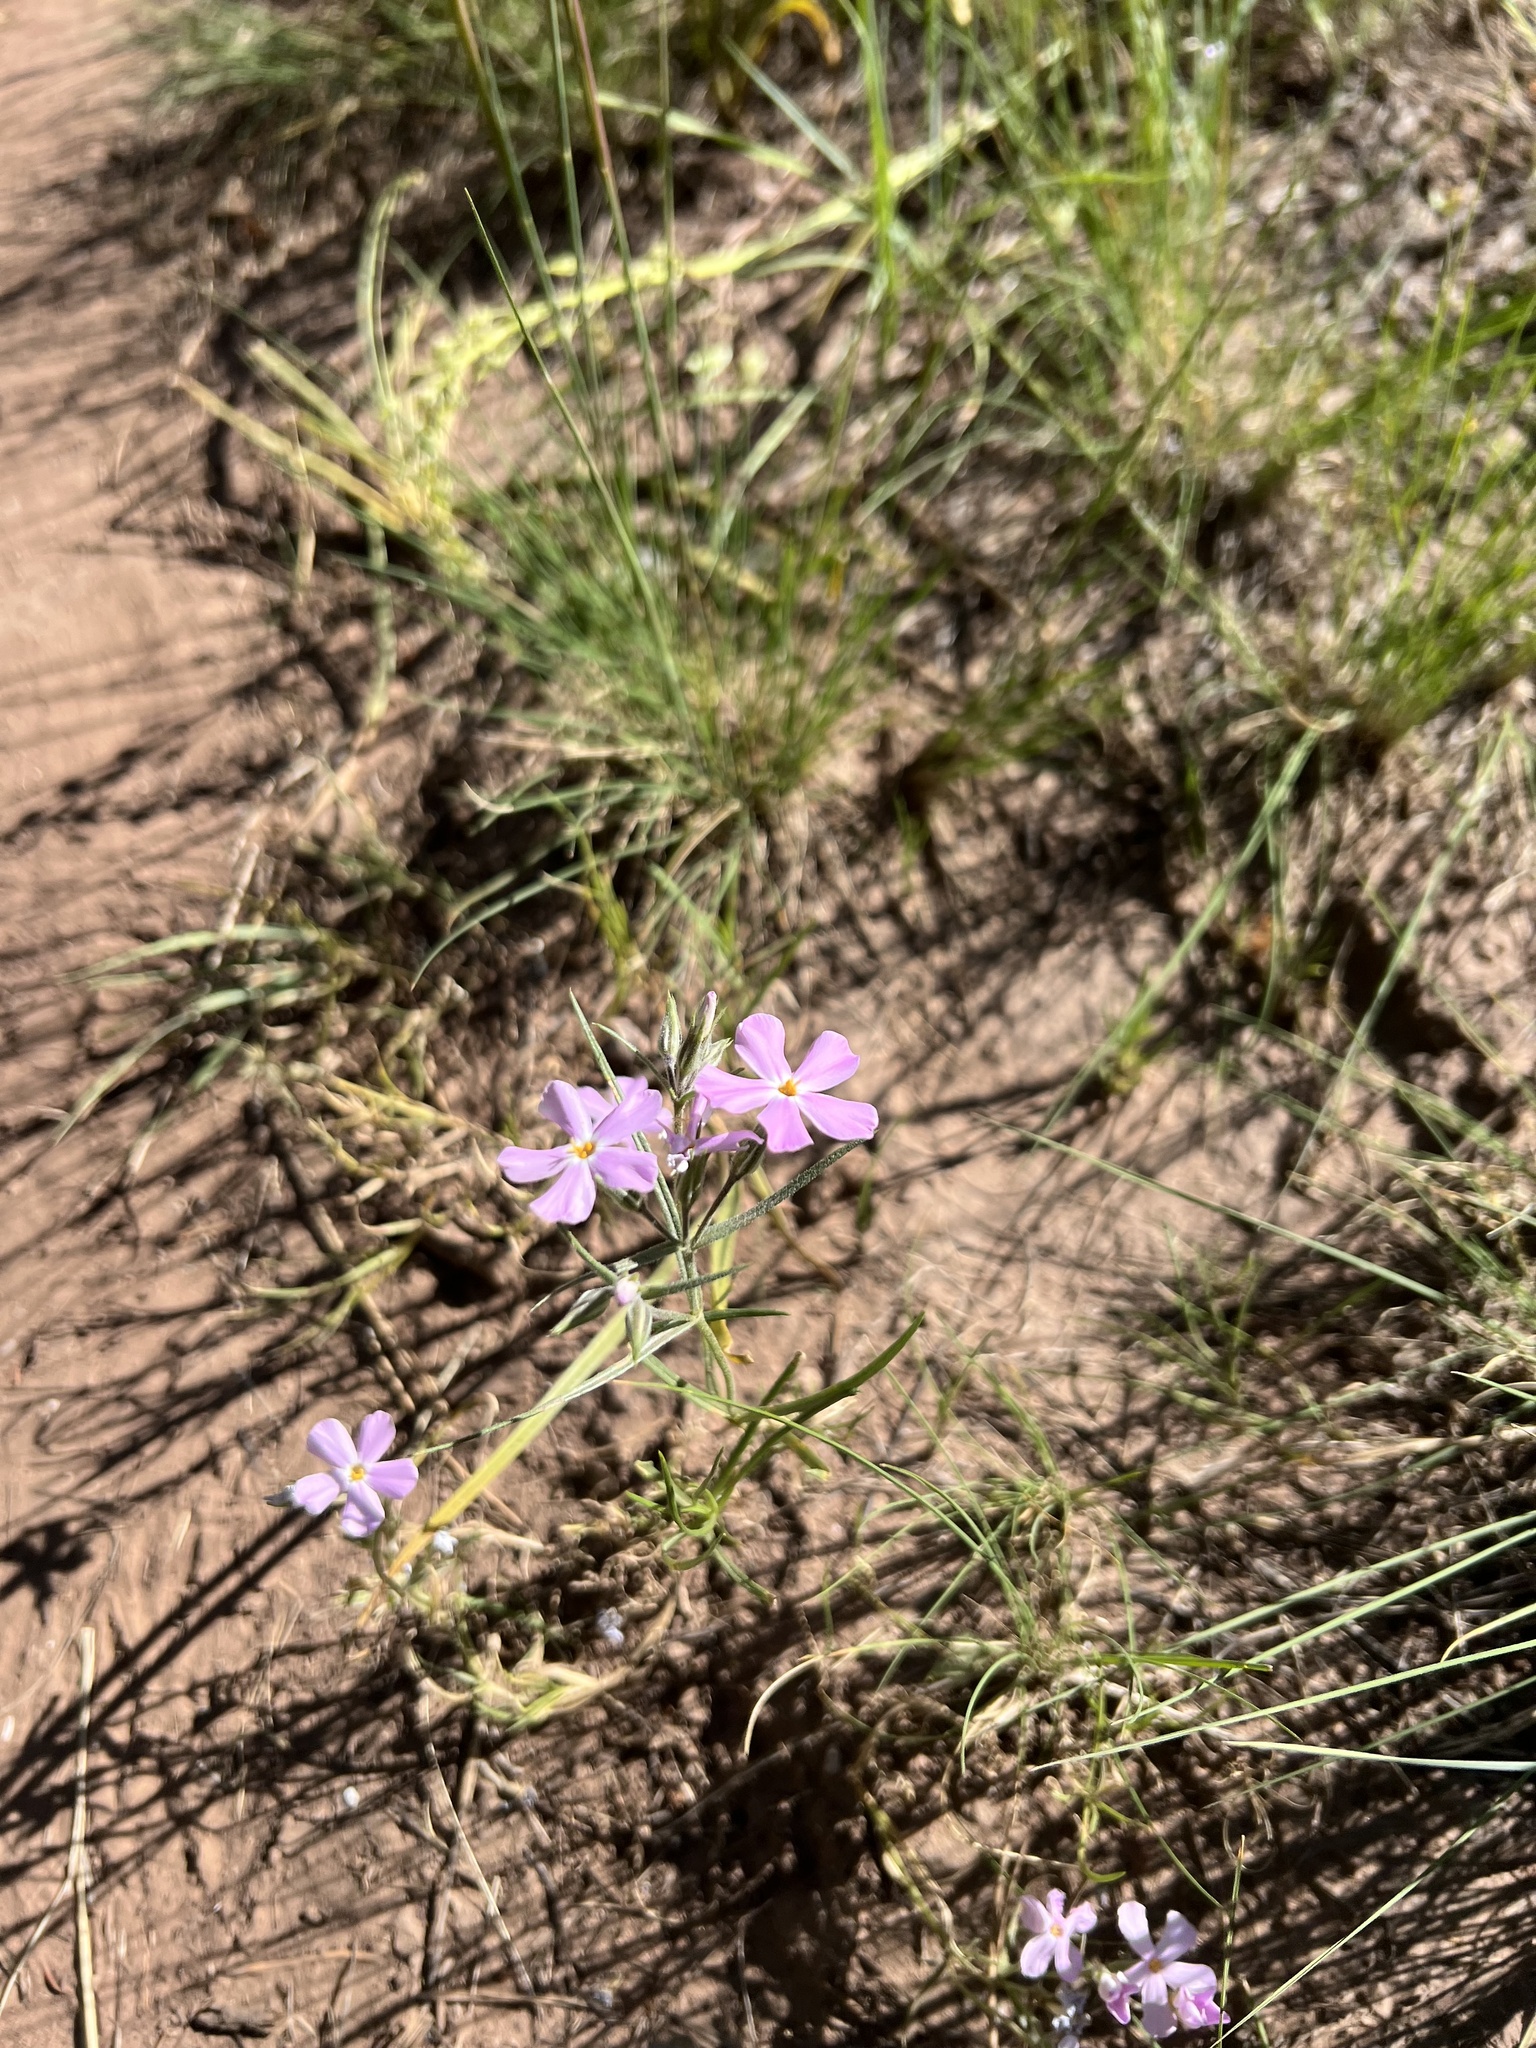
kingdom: Plantae
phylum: Tracheophyta
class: Magnoliopsida
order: Ericales
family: Polemoniaceae
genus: Phlox
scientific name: Phlox longifolia
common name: Longleaf phlox
